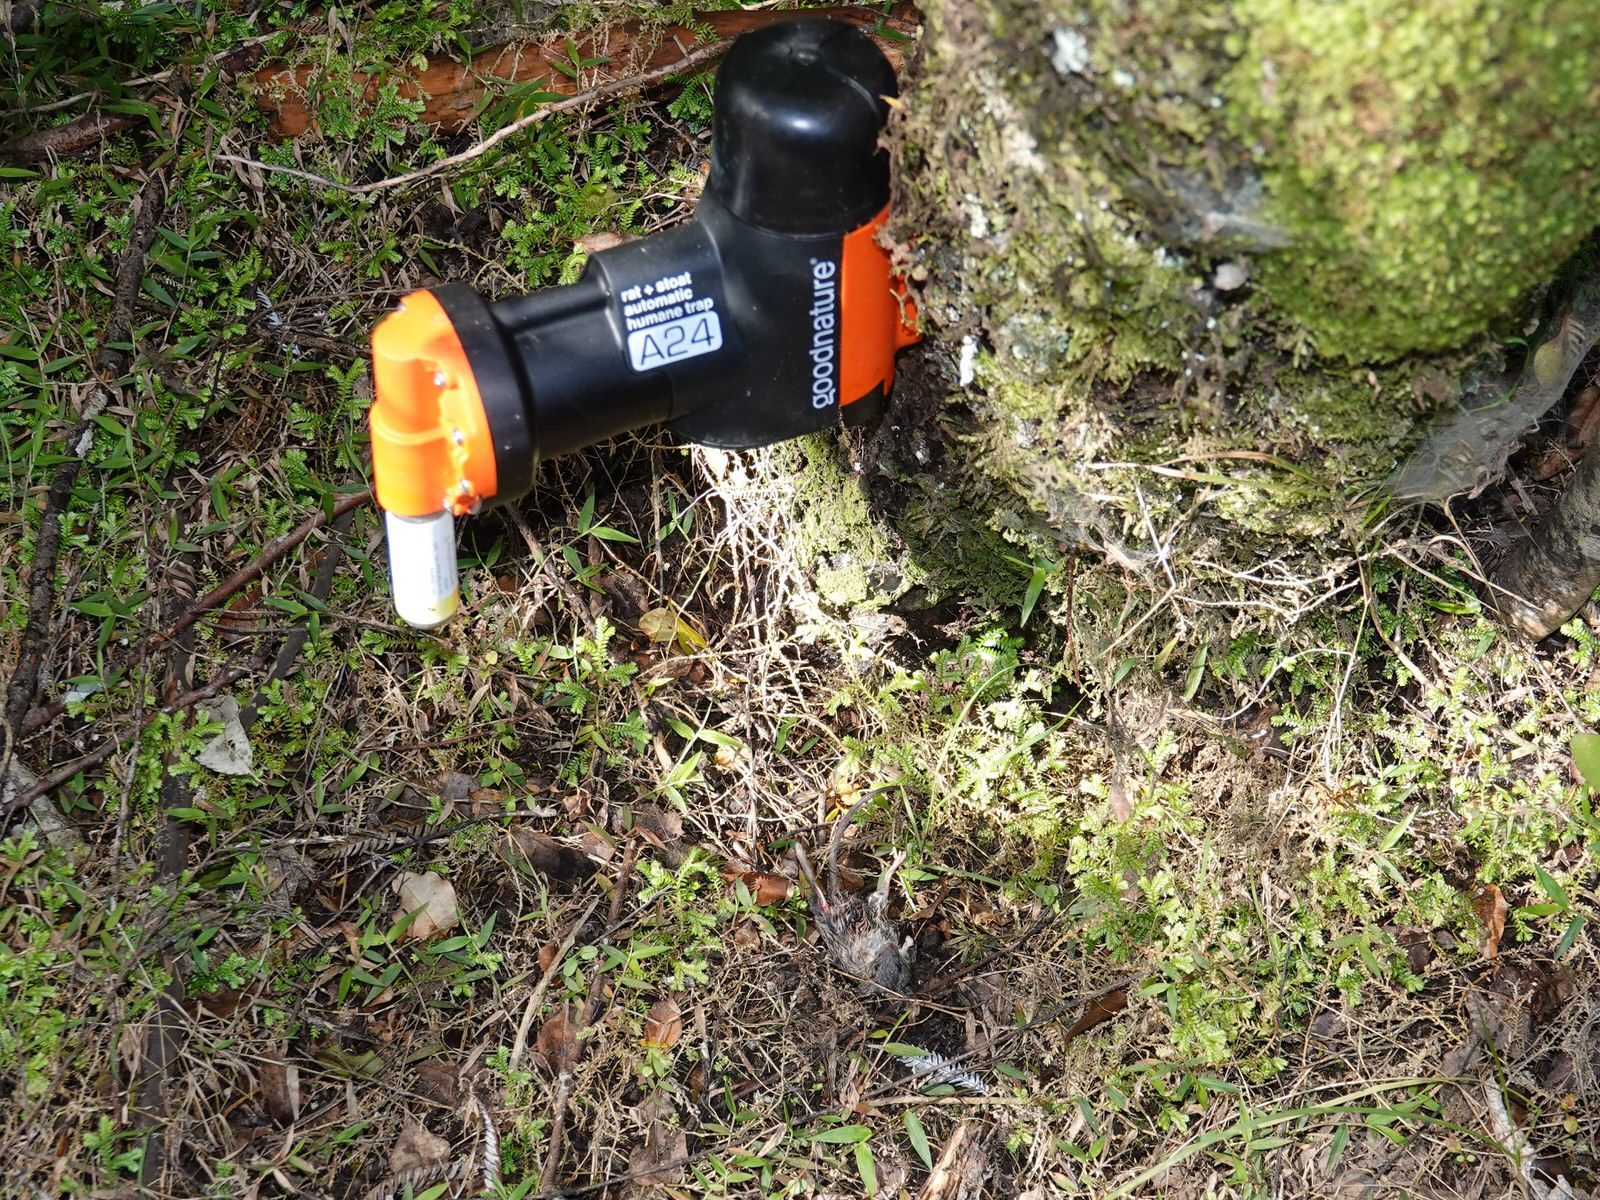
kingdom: Animalia
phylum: Chordata
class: Mammalia
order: Rodentia
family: Muridae
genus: Mus
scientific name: Mus musculus
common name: House mouse
